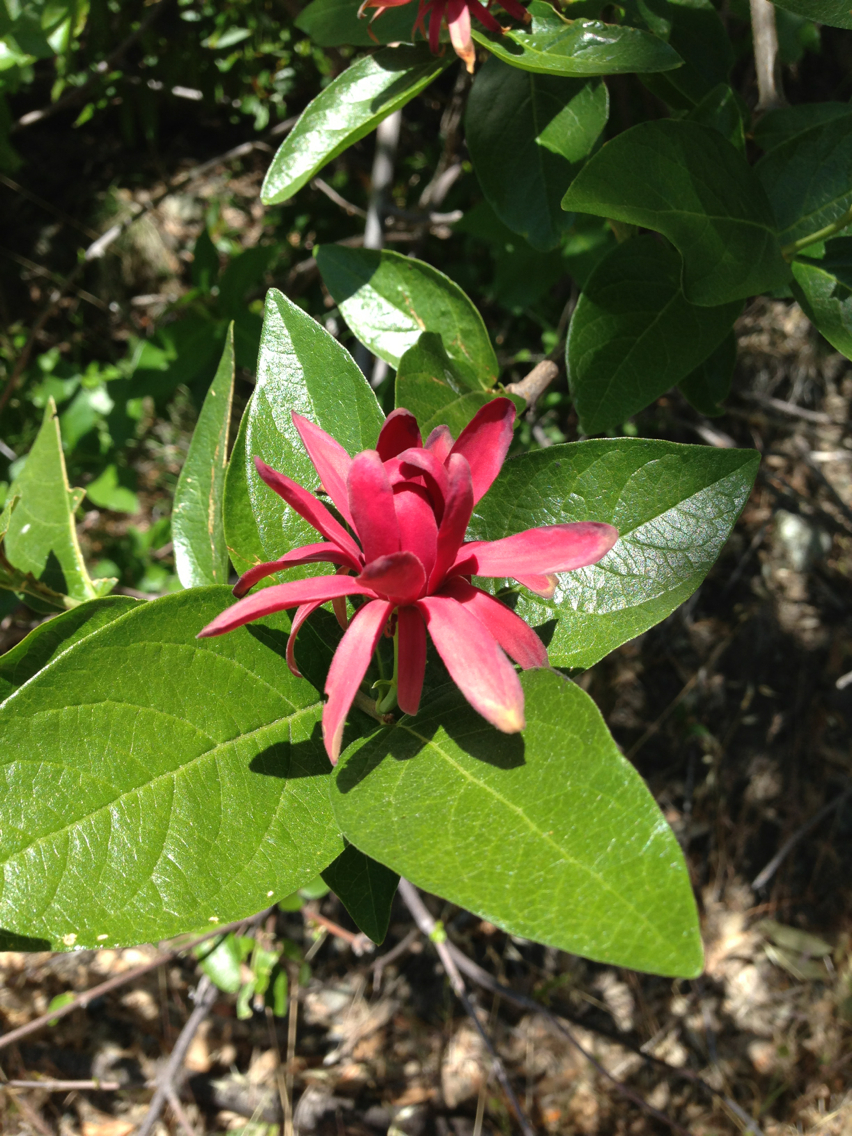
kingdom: Plantae
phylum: Tracheophyta
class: Magnoliopsida
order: Laurales
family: Calycanthaceae
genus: Calycanthus
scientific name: Calycanthus occidentalis
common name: California spicebush
